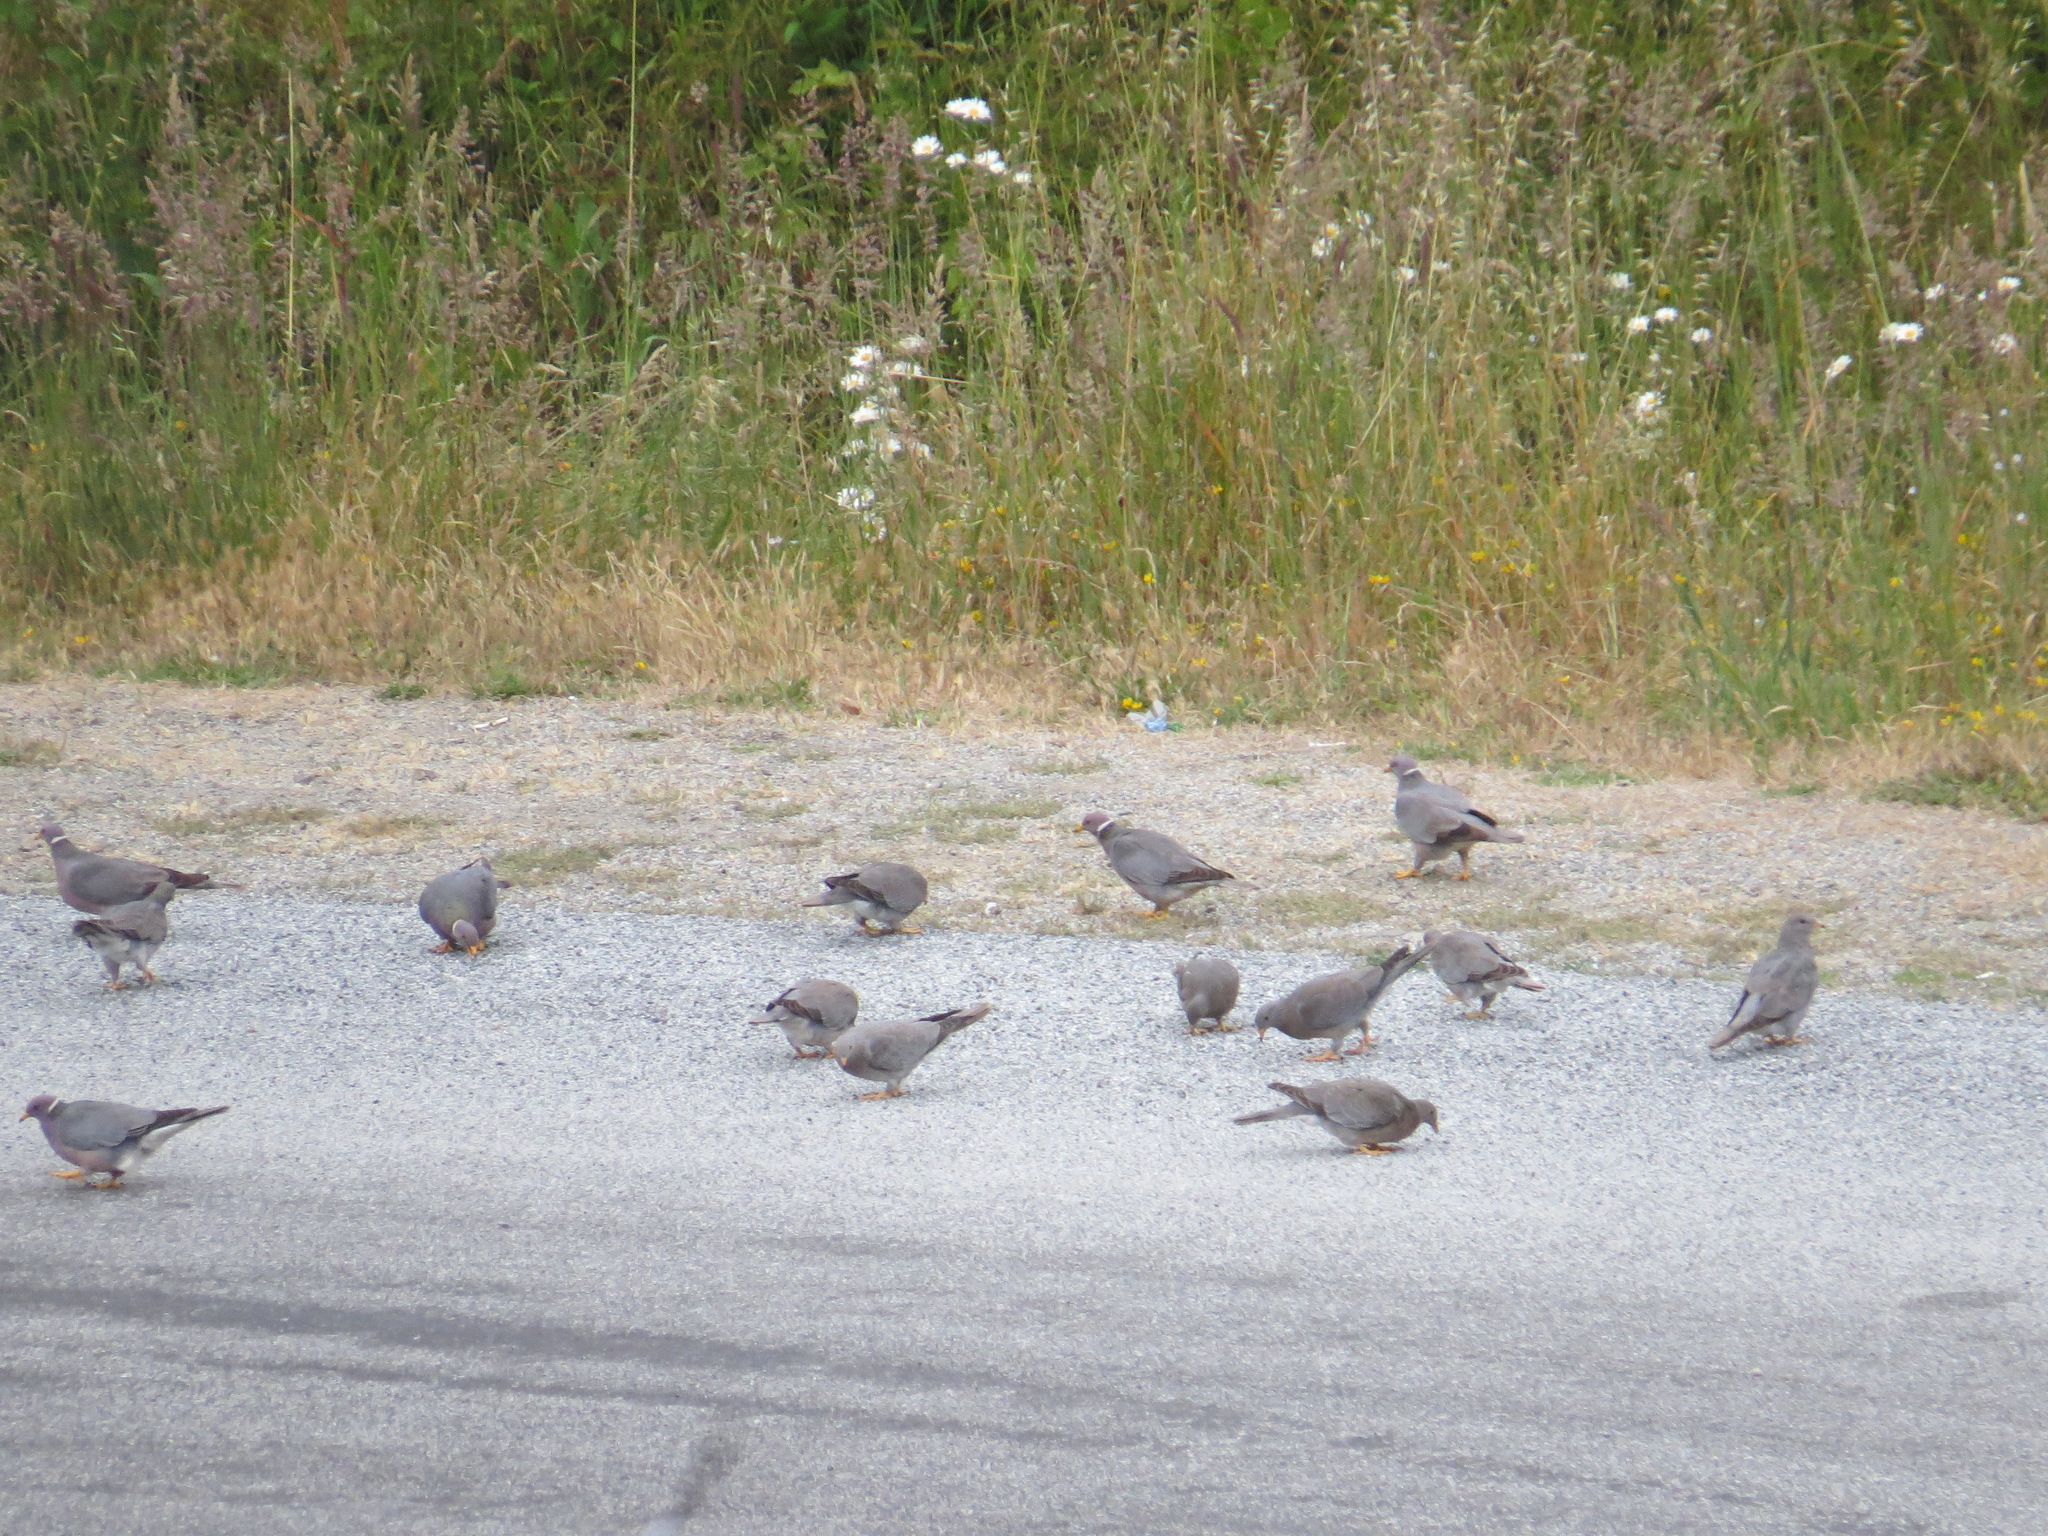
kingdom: Animalia
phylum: Chordata
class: Aves
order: Columbiformes
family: Columbidae
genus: Patagioenas
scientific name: Patagioenas fasciata
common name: Band-tailed pigeon
